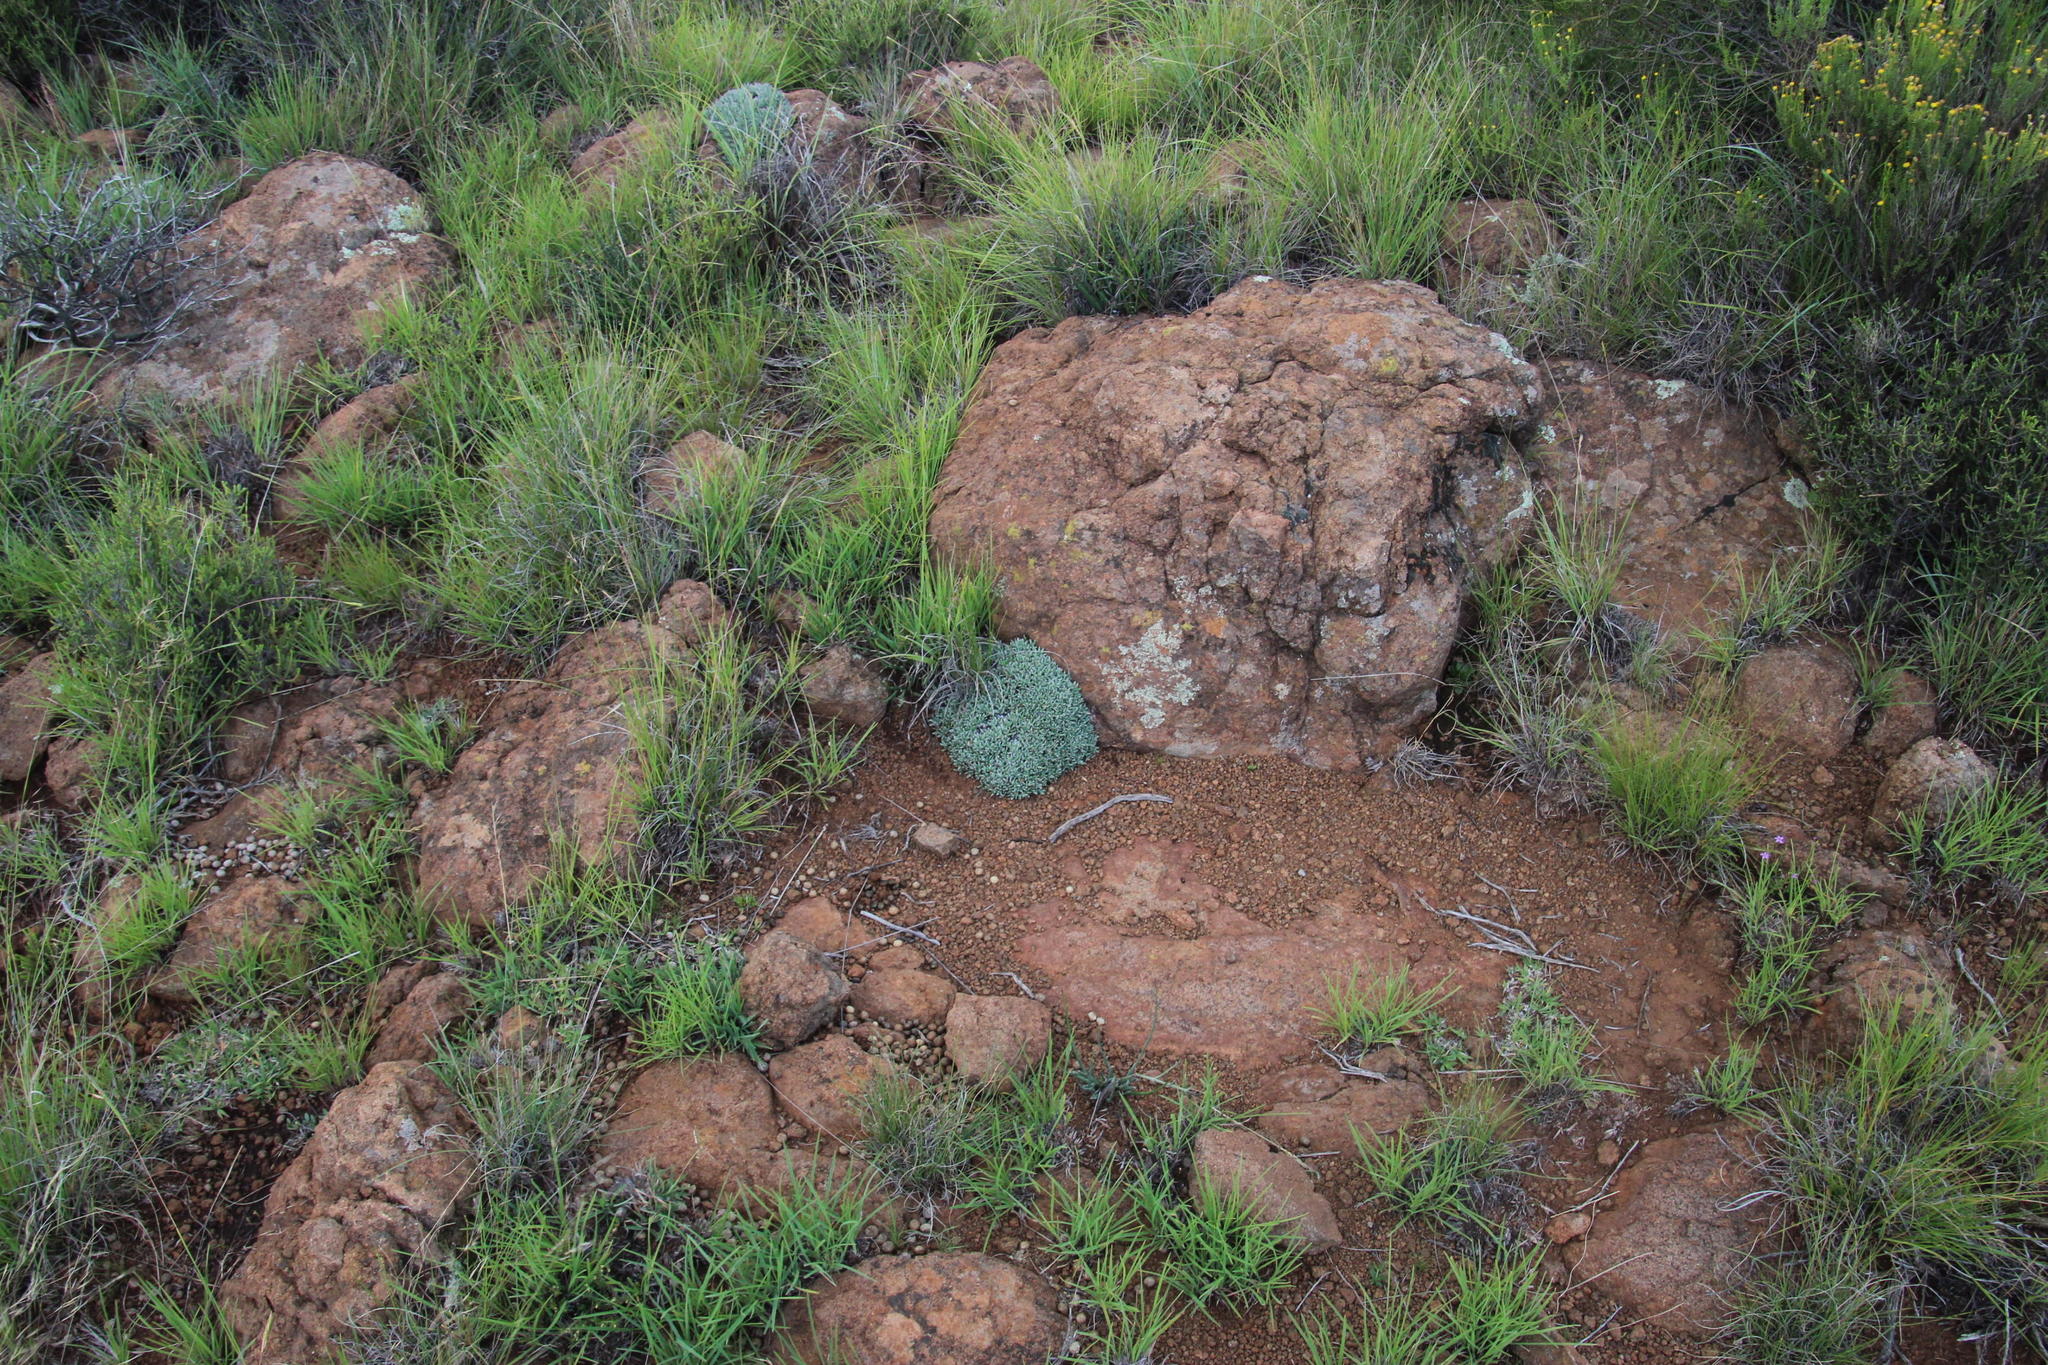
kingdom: Plantae
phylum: Tracheophyta
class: Magnoliopsida
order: Caryophyllales
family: Aizoaceae
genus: Ruschia
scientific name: Ruschia indurata
